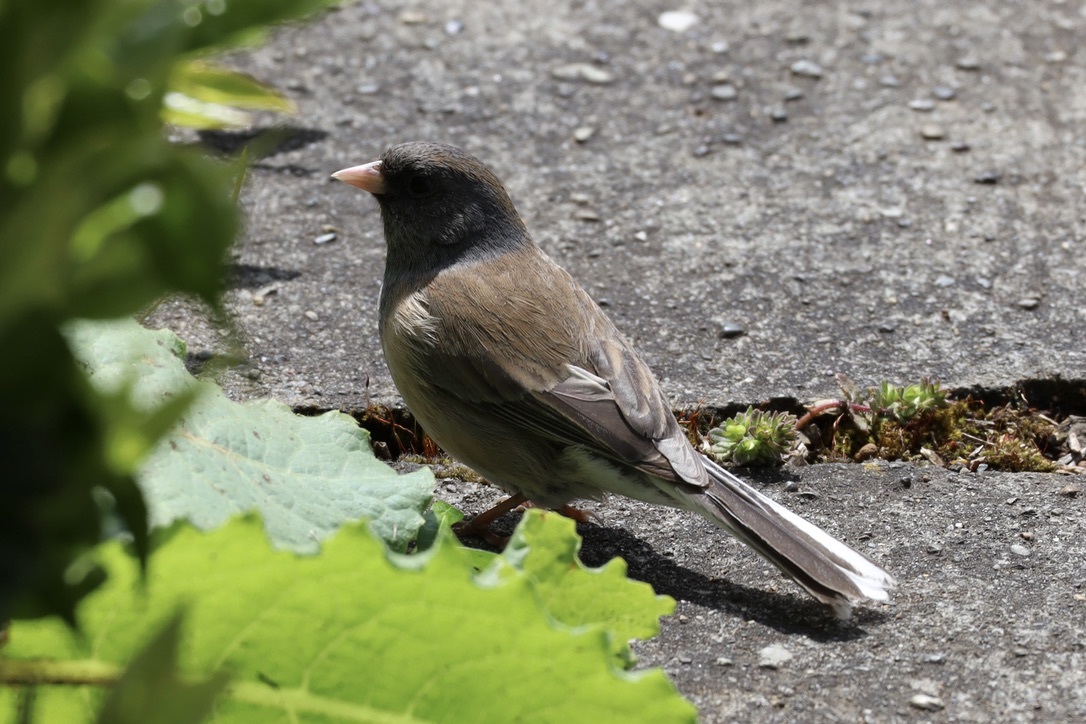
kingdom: Animalia
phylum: Chordata
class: Aves
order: Passeriformes
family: Passerellidae
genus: Junco
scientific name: Junco hyemalis
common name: Dark-eyed junco
